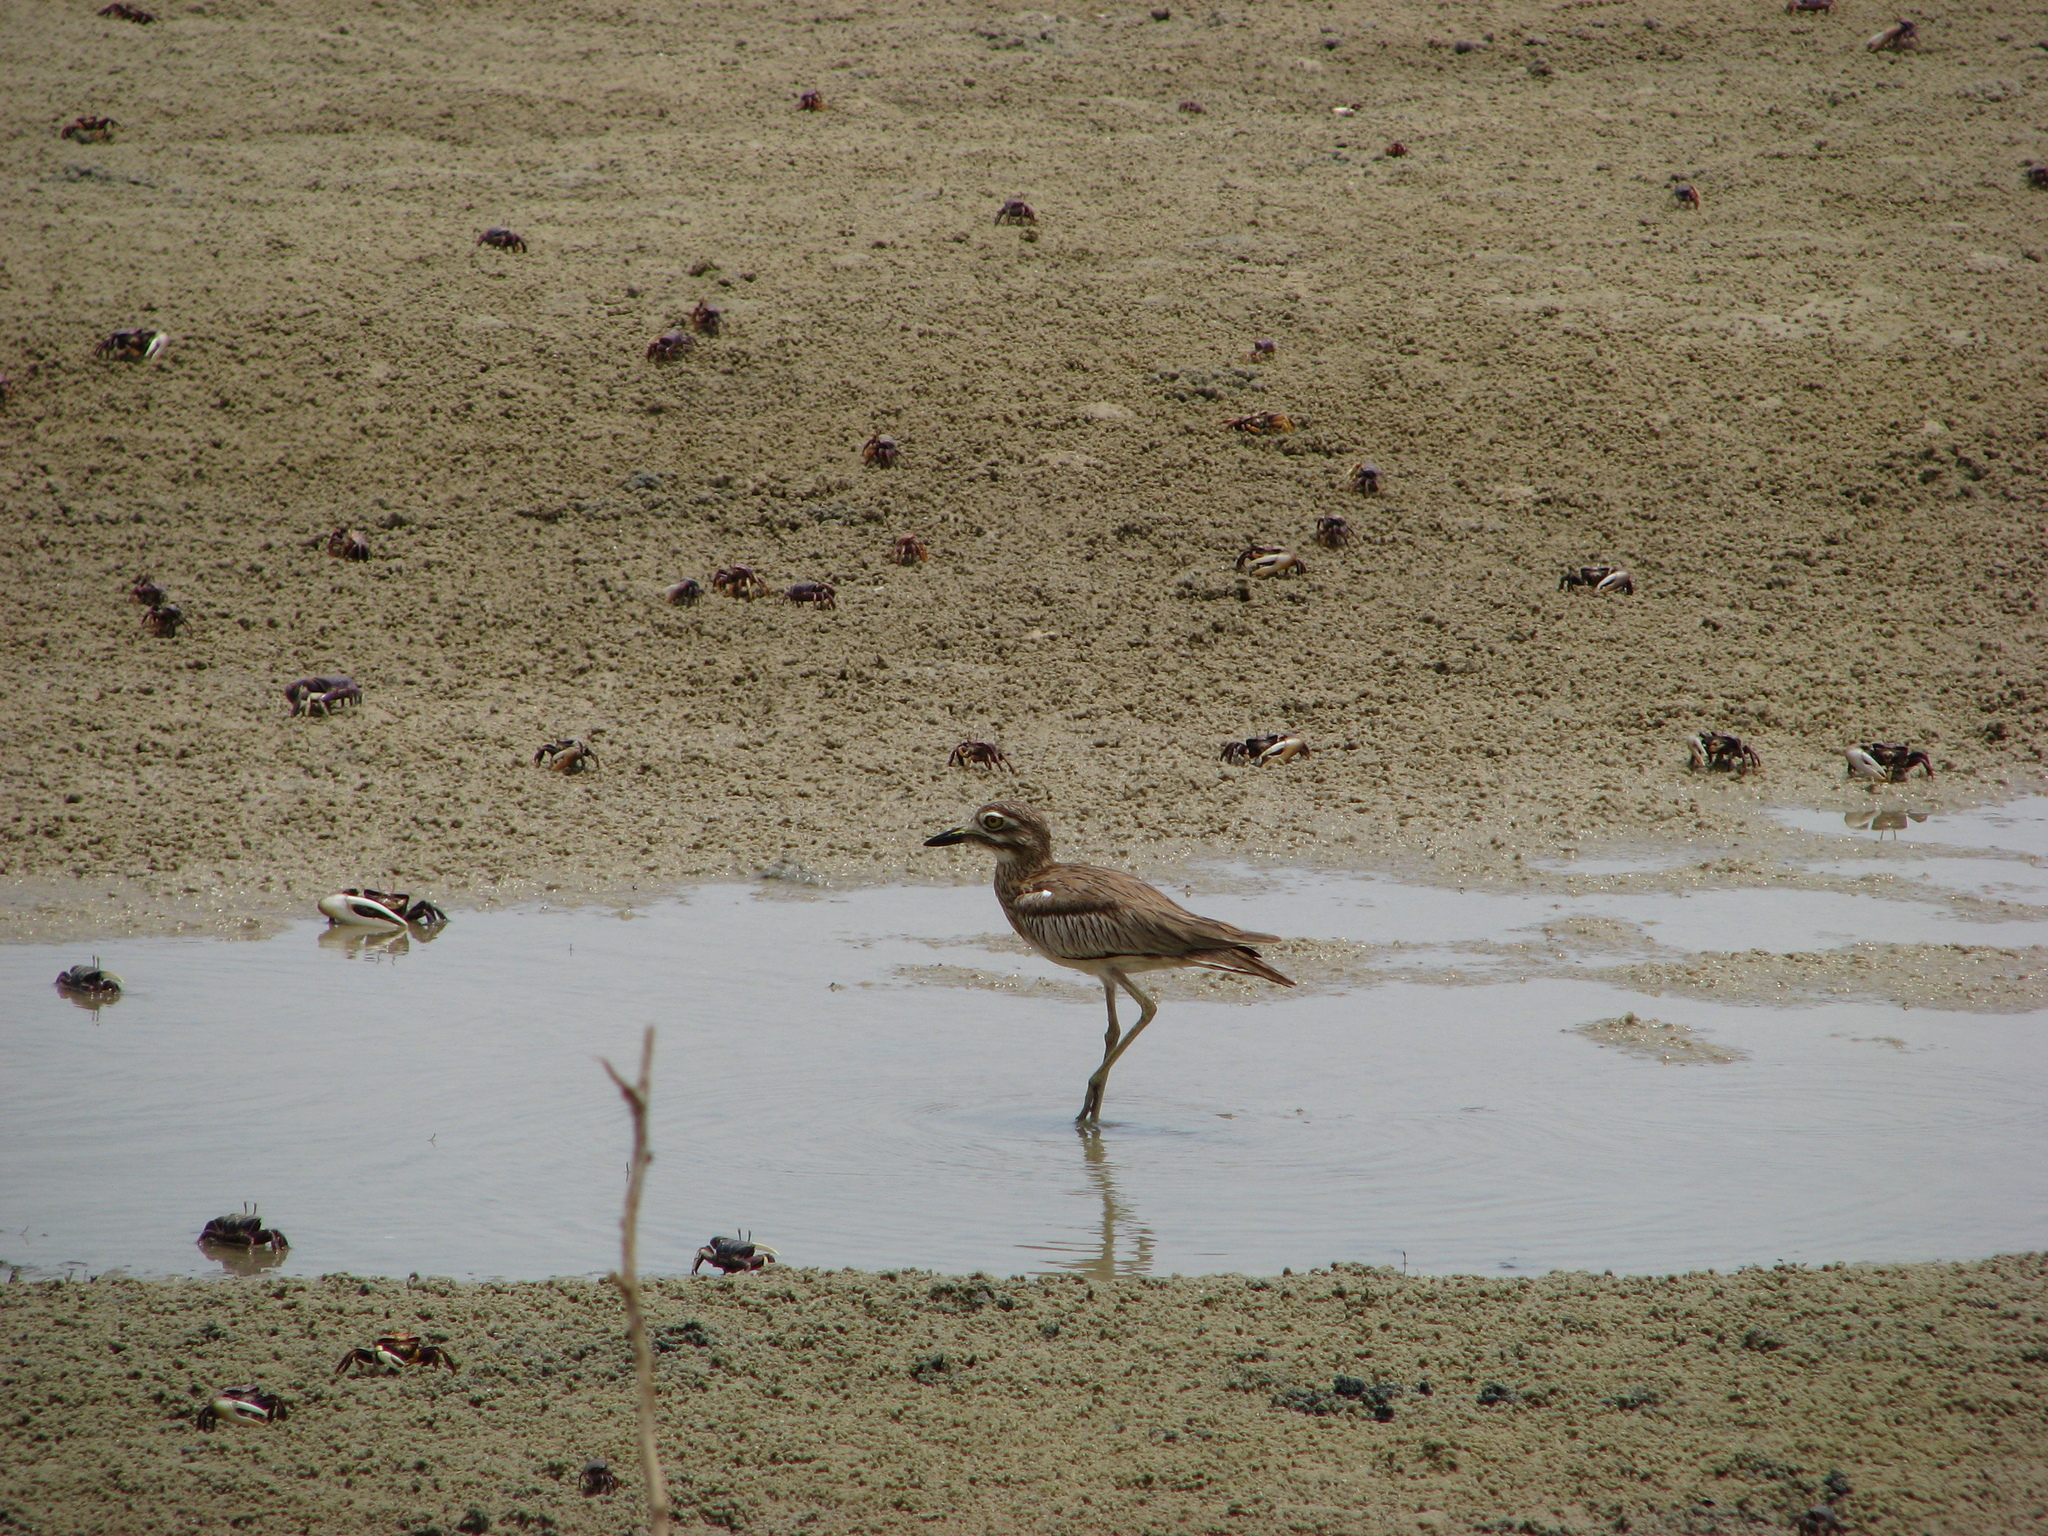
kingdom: Animalia
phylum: Chordata
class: Aves
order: Charadriiformes
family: Burhinidae
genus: Burhinus
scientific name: Burhinus senegalensis
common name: Senegal thick-knee
